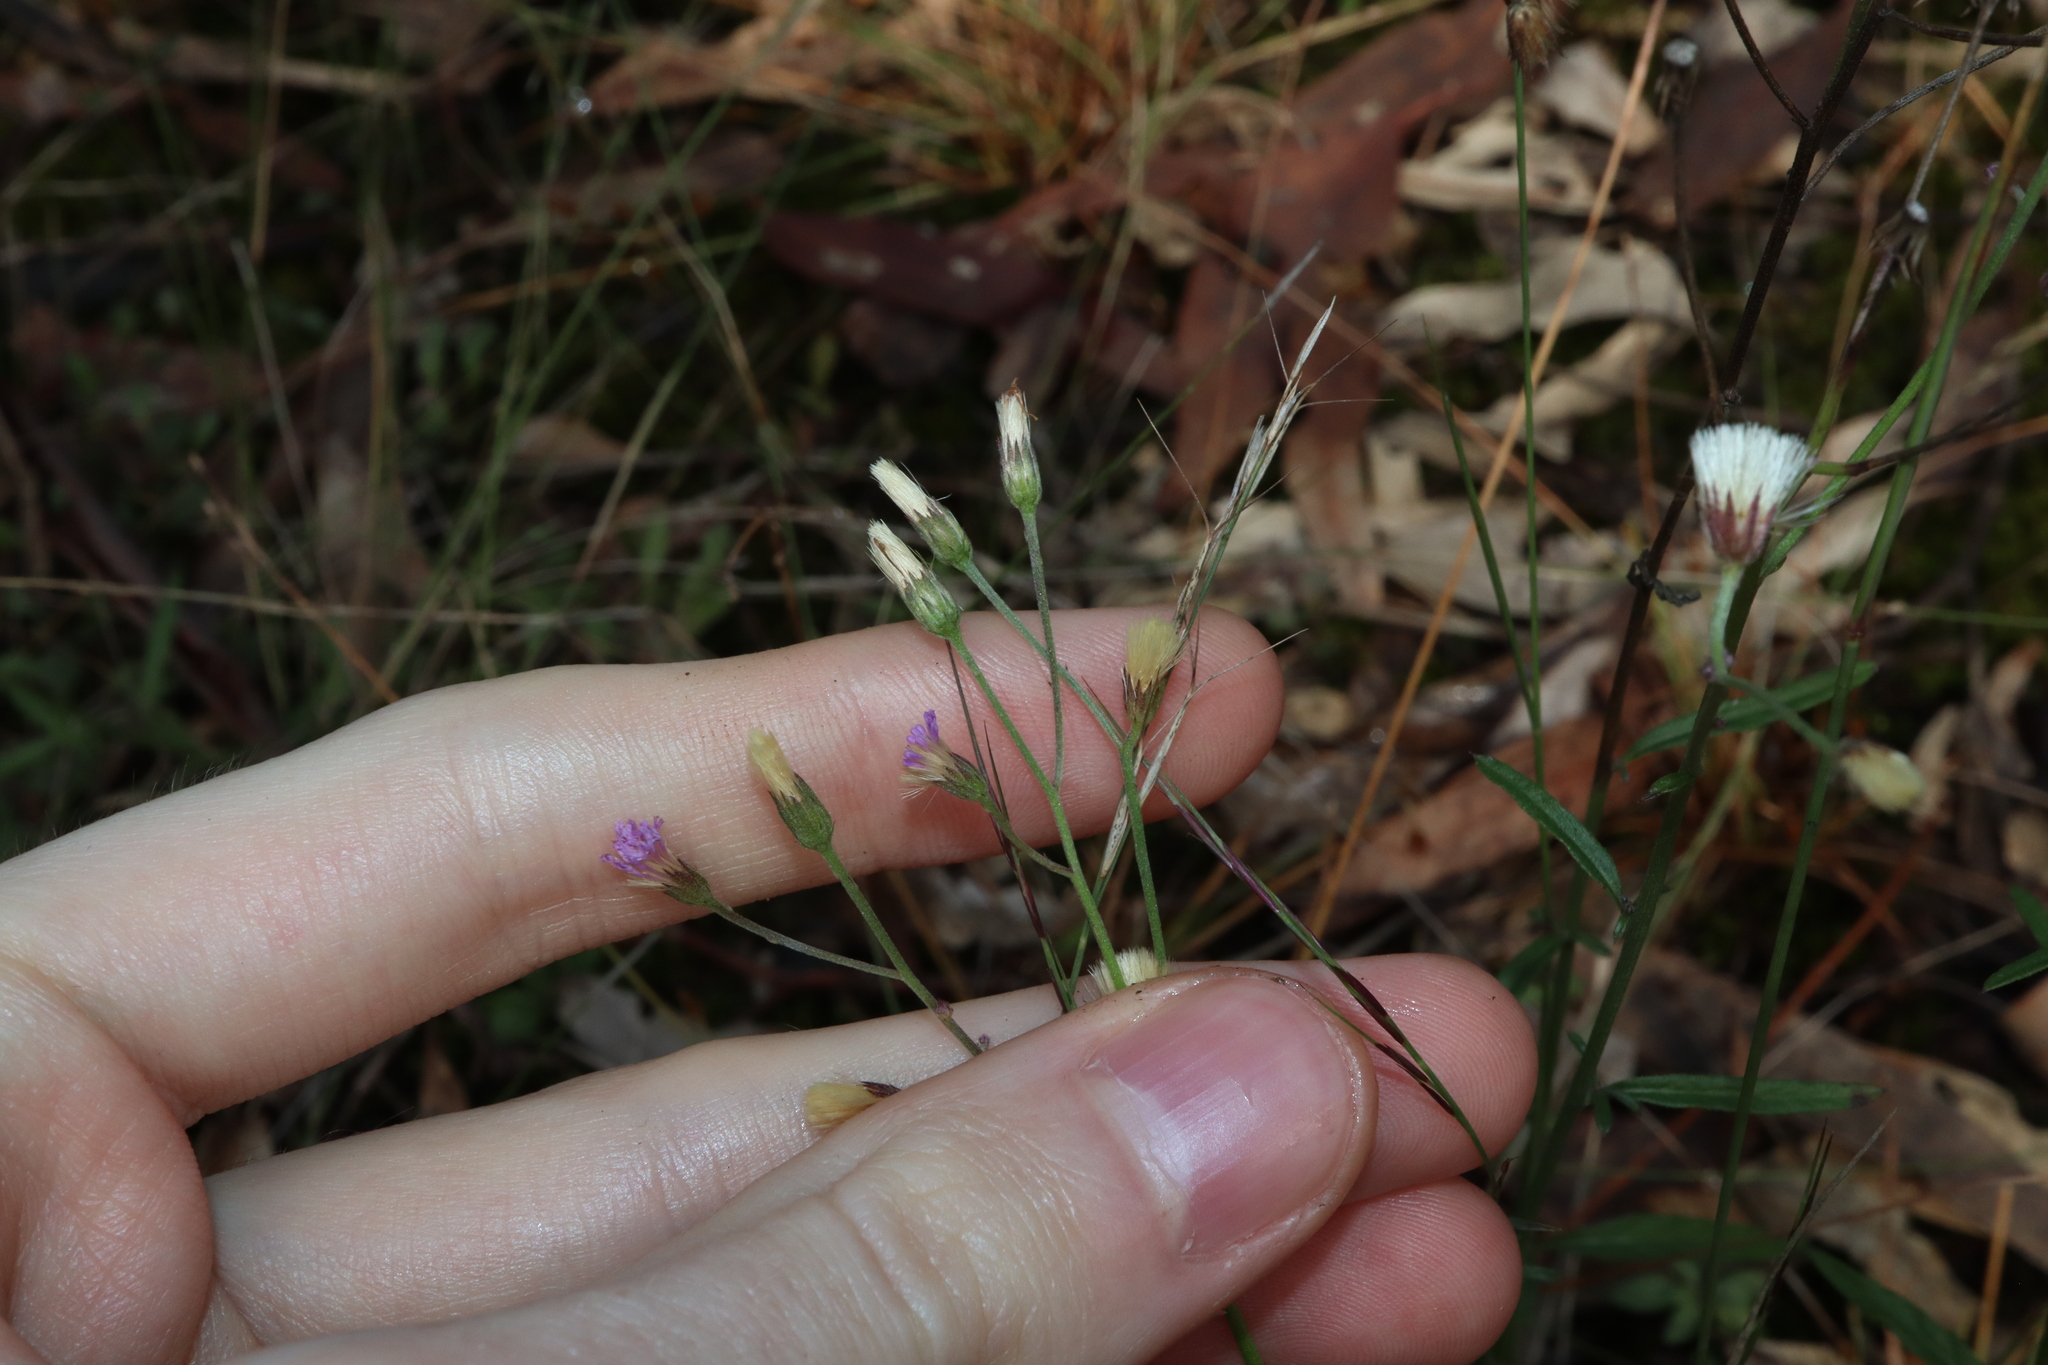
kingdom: Plantae
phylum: Tracheophyta
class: Magnoliopsida
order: Asterales
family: Asteraceae
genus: Cyanthillium
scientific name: Cyanthillium cinereum
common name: Little ironweed
